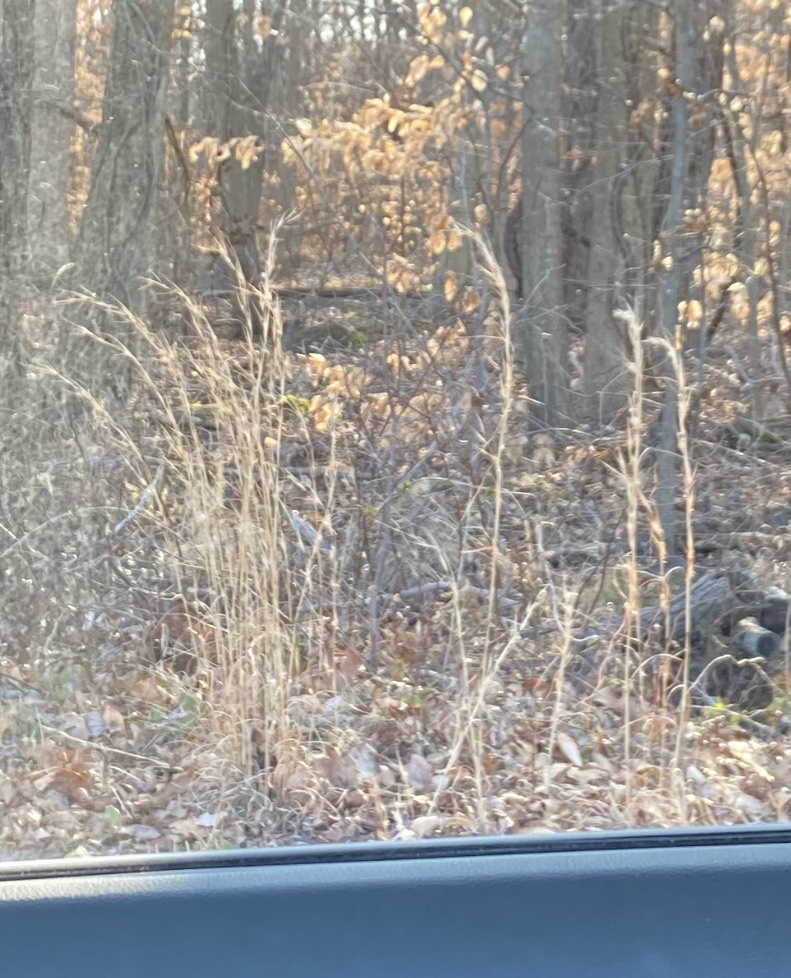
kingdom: Plantae
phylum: Tracheophyta
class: Liliopsida
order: Poales
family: Poaceae
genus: Andropogon
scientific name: Andropogon virginicus
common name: Broomsedge bluestem
